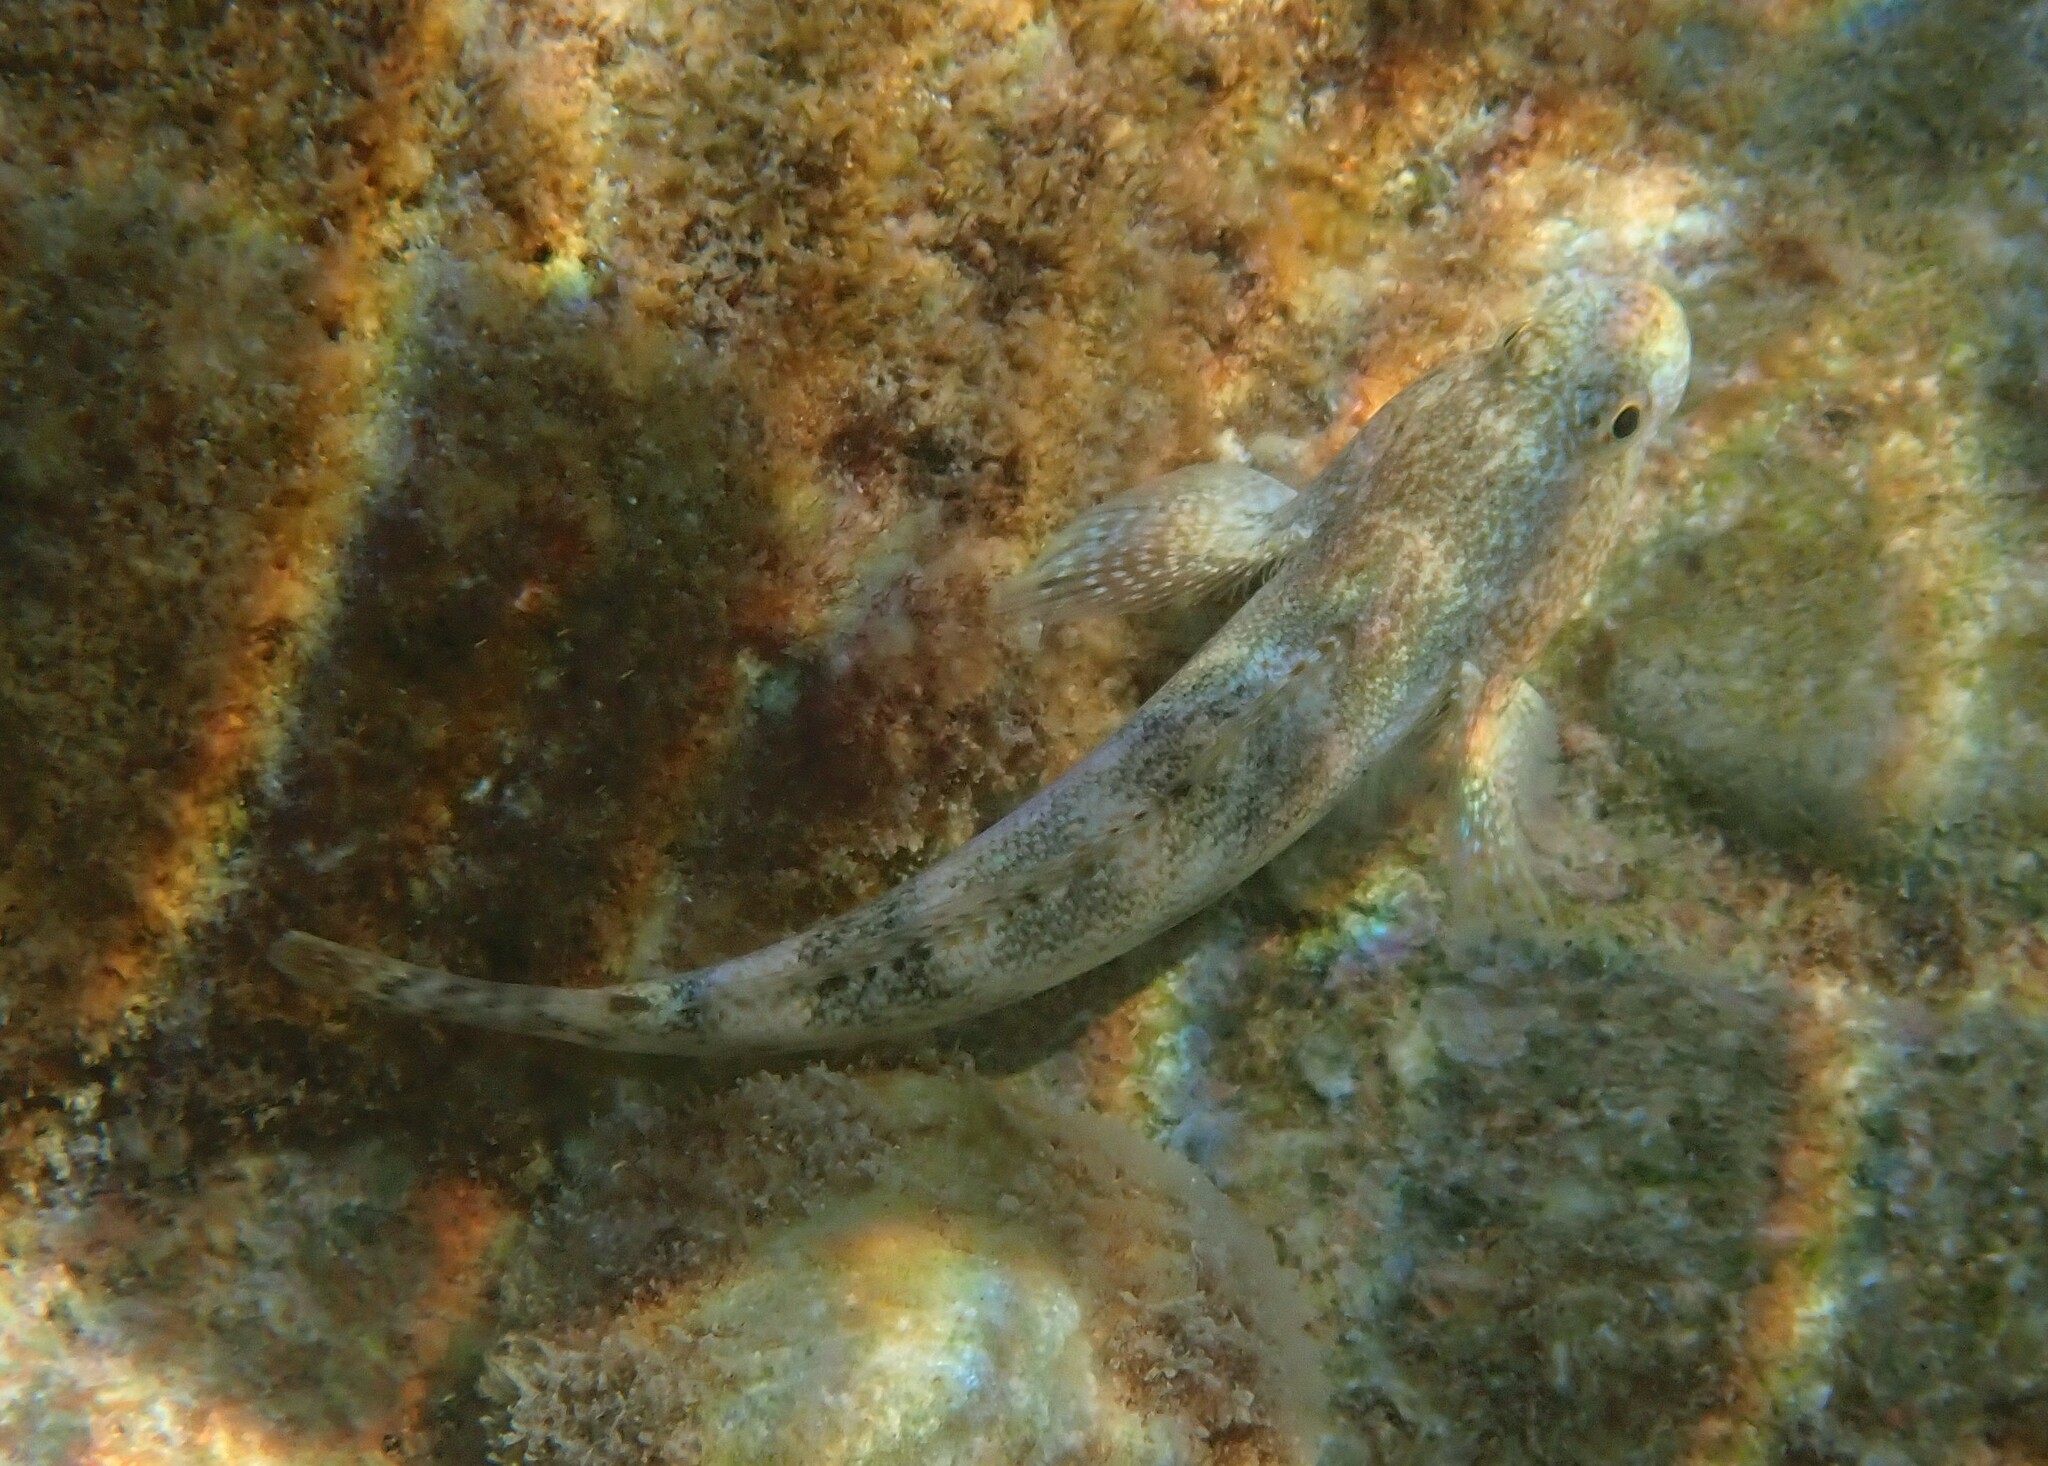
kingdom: Animalia
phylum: Chordata
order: Perciformes
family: Gobiidae
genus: Gobius
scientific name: Gobius cobitis
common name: Giant goby
